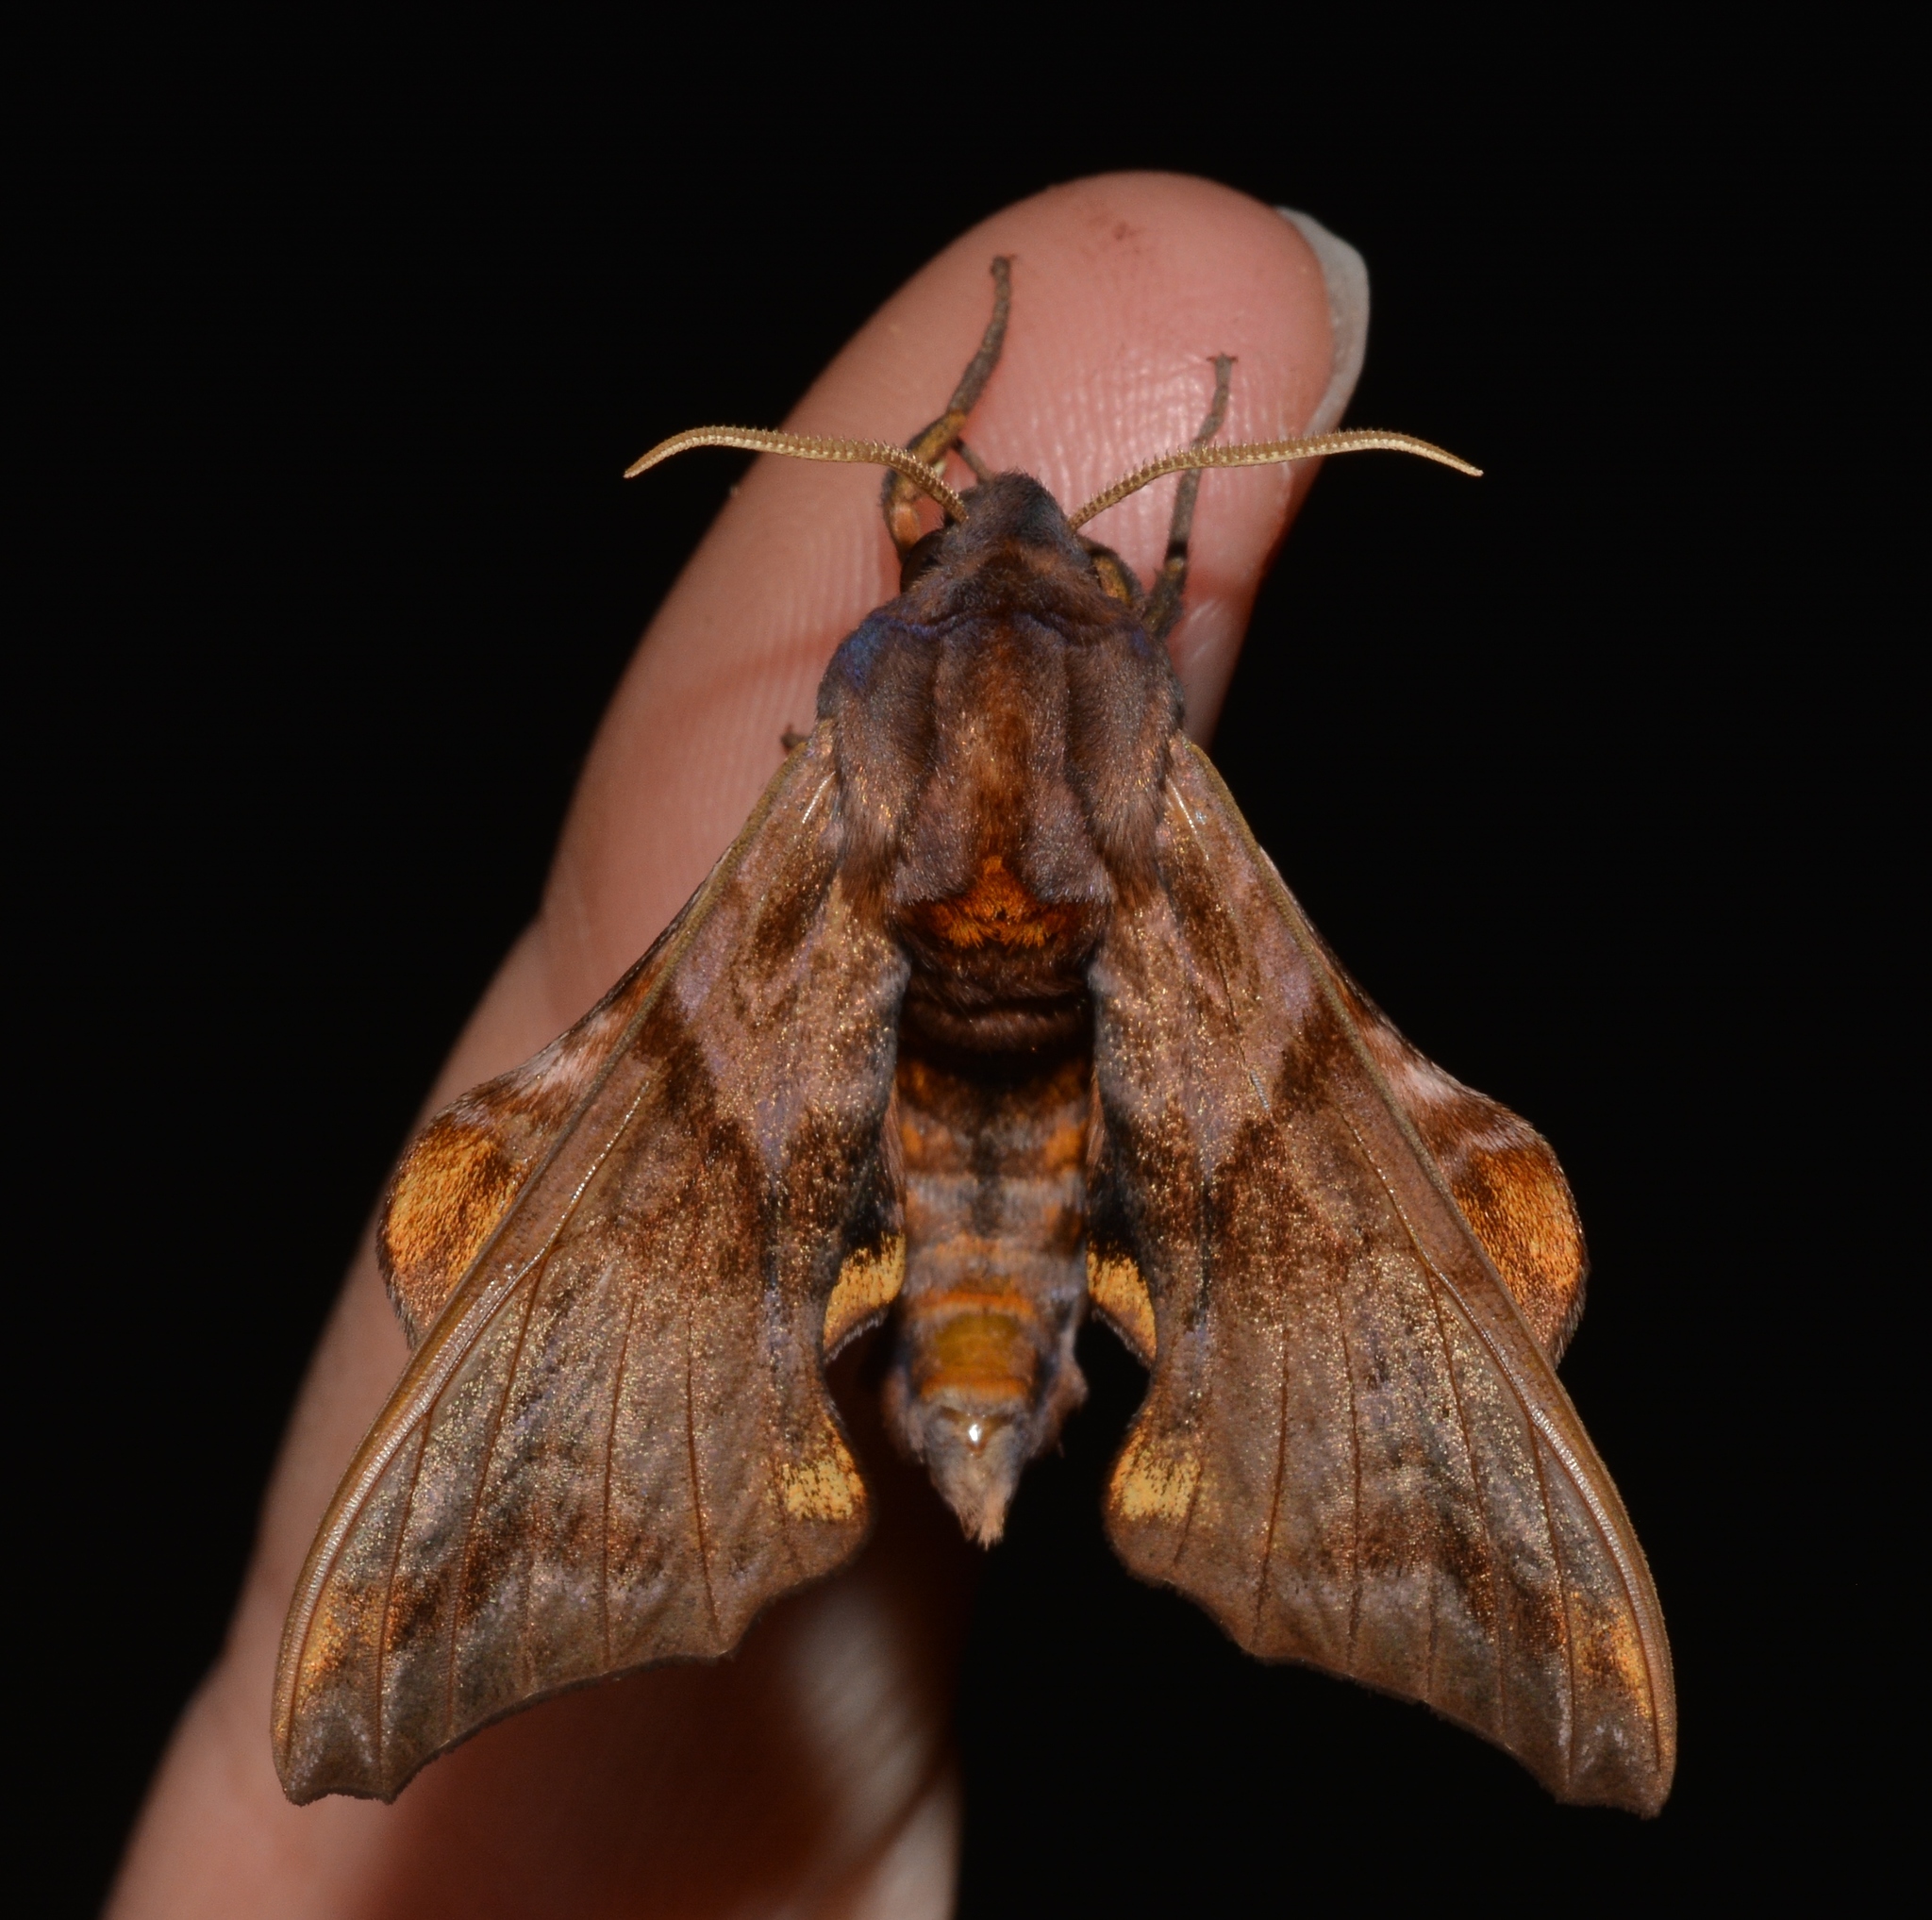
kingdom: Animalia
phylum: Arthropoda
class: Insecta
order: Lepidoptera
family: Sphingidae
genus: Paonias
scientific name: Paonias myops
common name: Small-eyed sphinx
